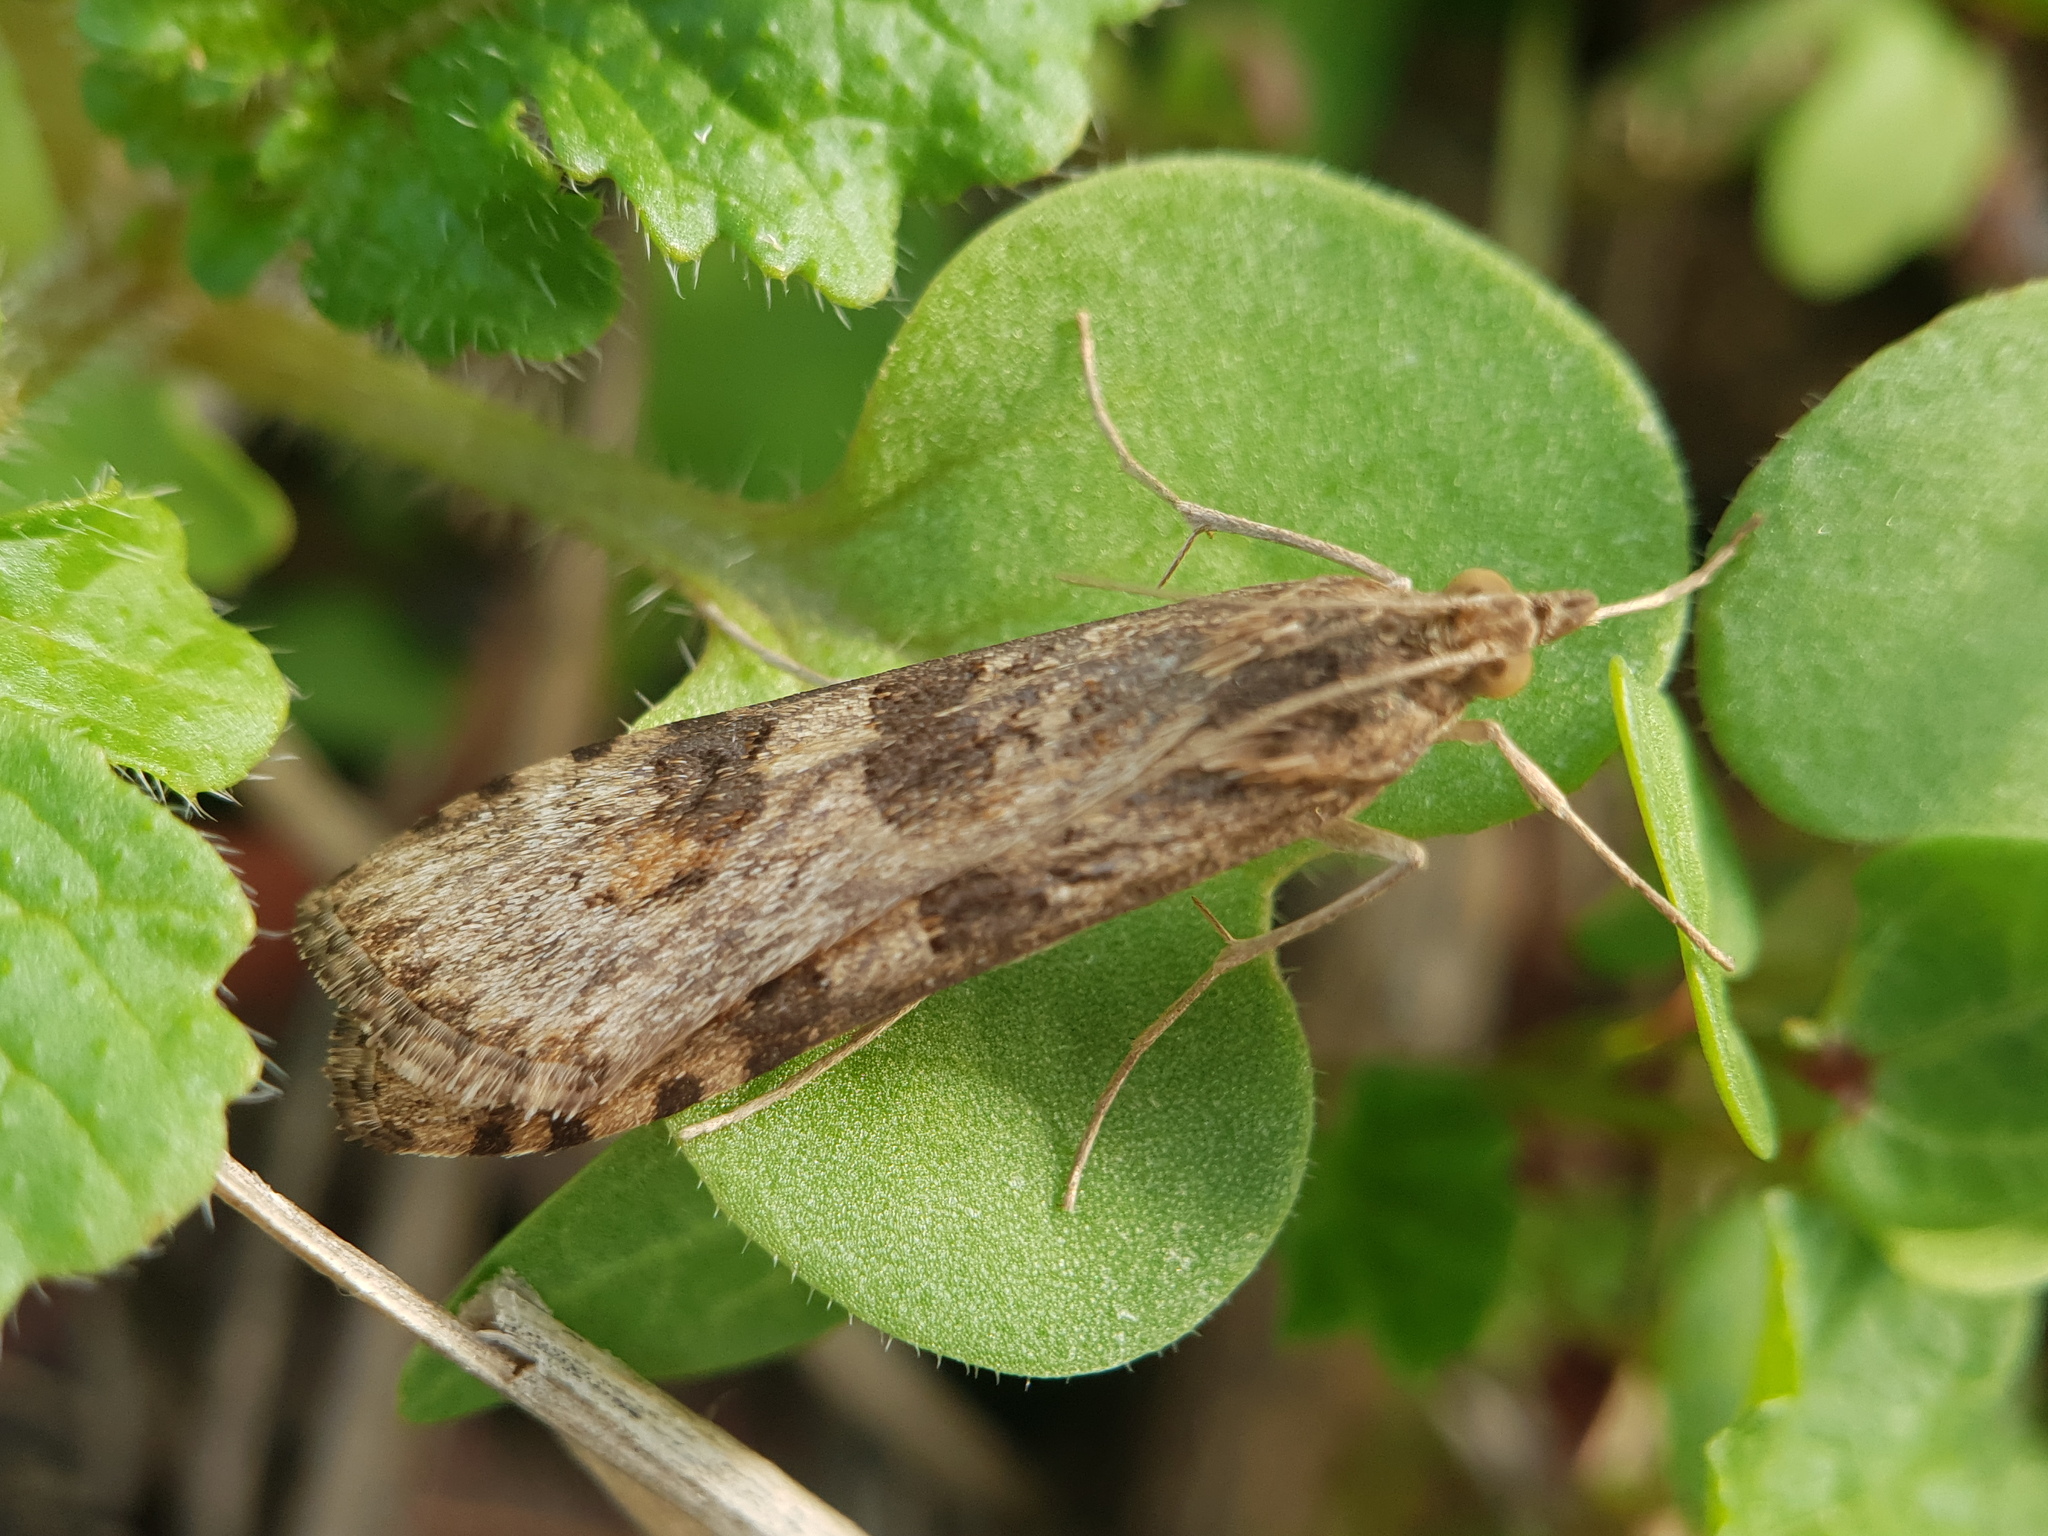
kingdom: Animalia
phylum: Arthropoda
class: Insecta
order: Lepidoptera
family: Crambidae
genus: Nomophila
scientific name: Nomophila noctuella
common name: Rush veneer
